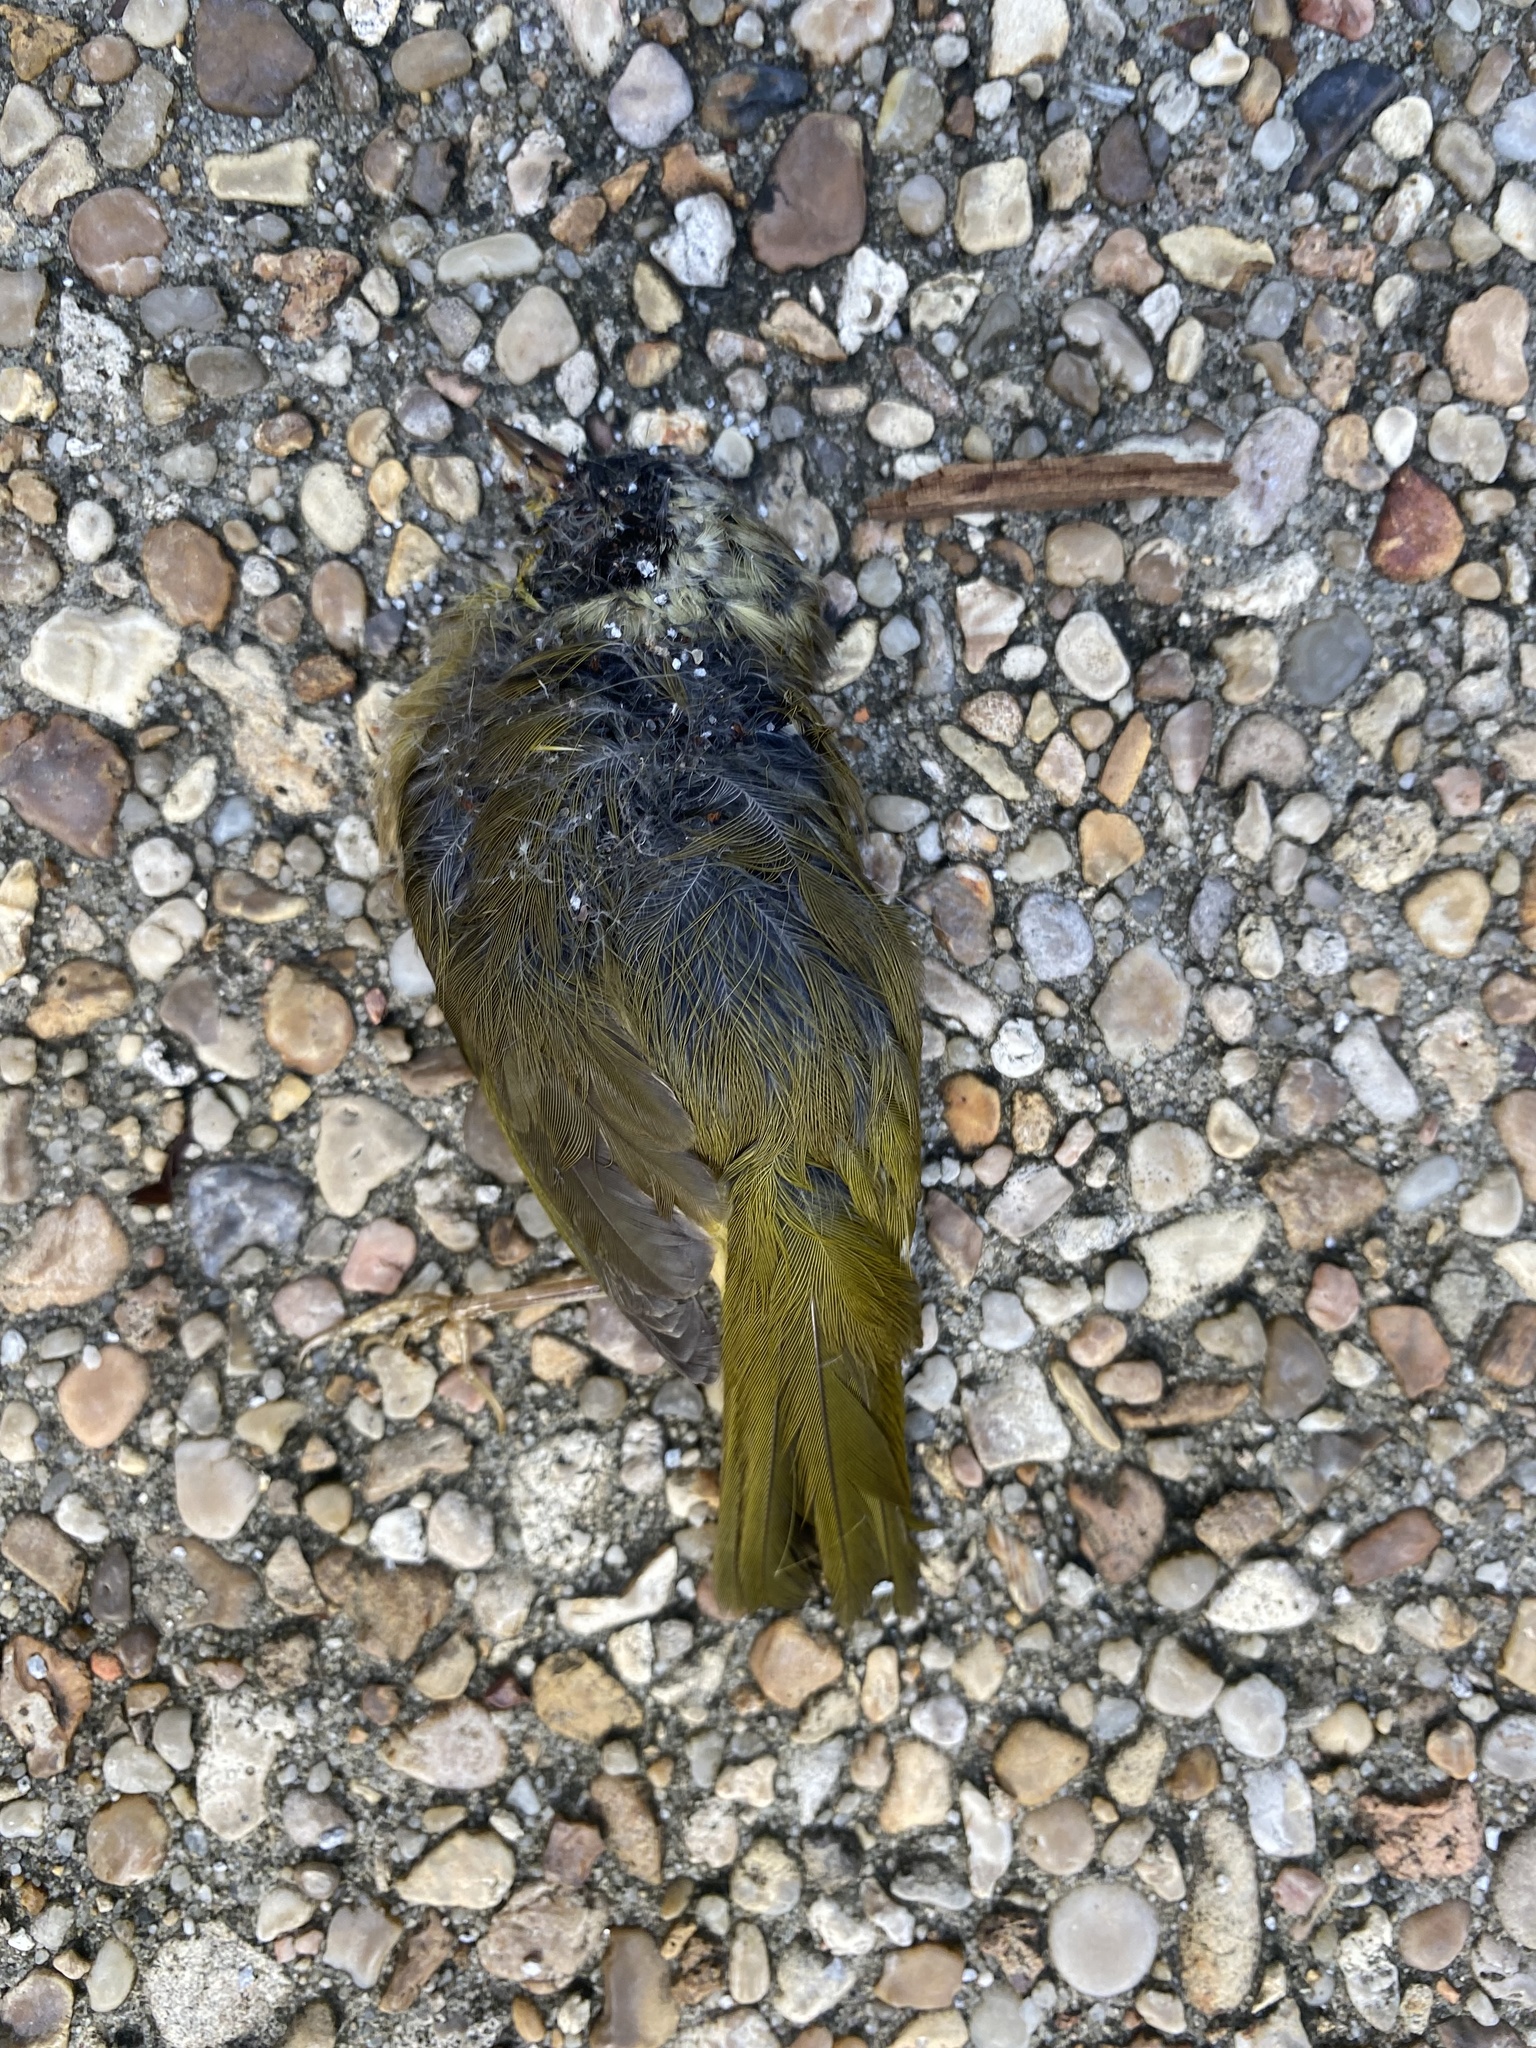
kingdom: Animalia
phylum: Chordata
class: Aves
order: Passeriformes
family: Parulidae
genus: Geothlypis
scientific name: Geothlypis trichas
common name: Common yellowthroat
